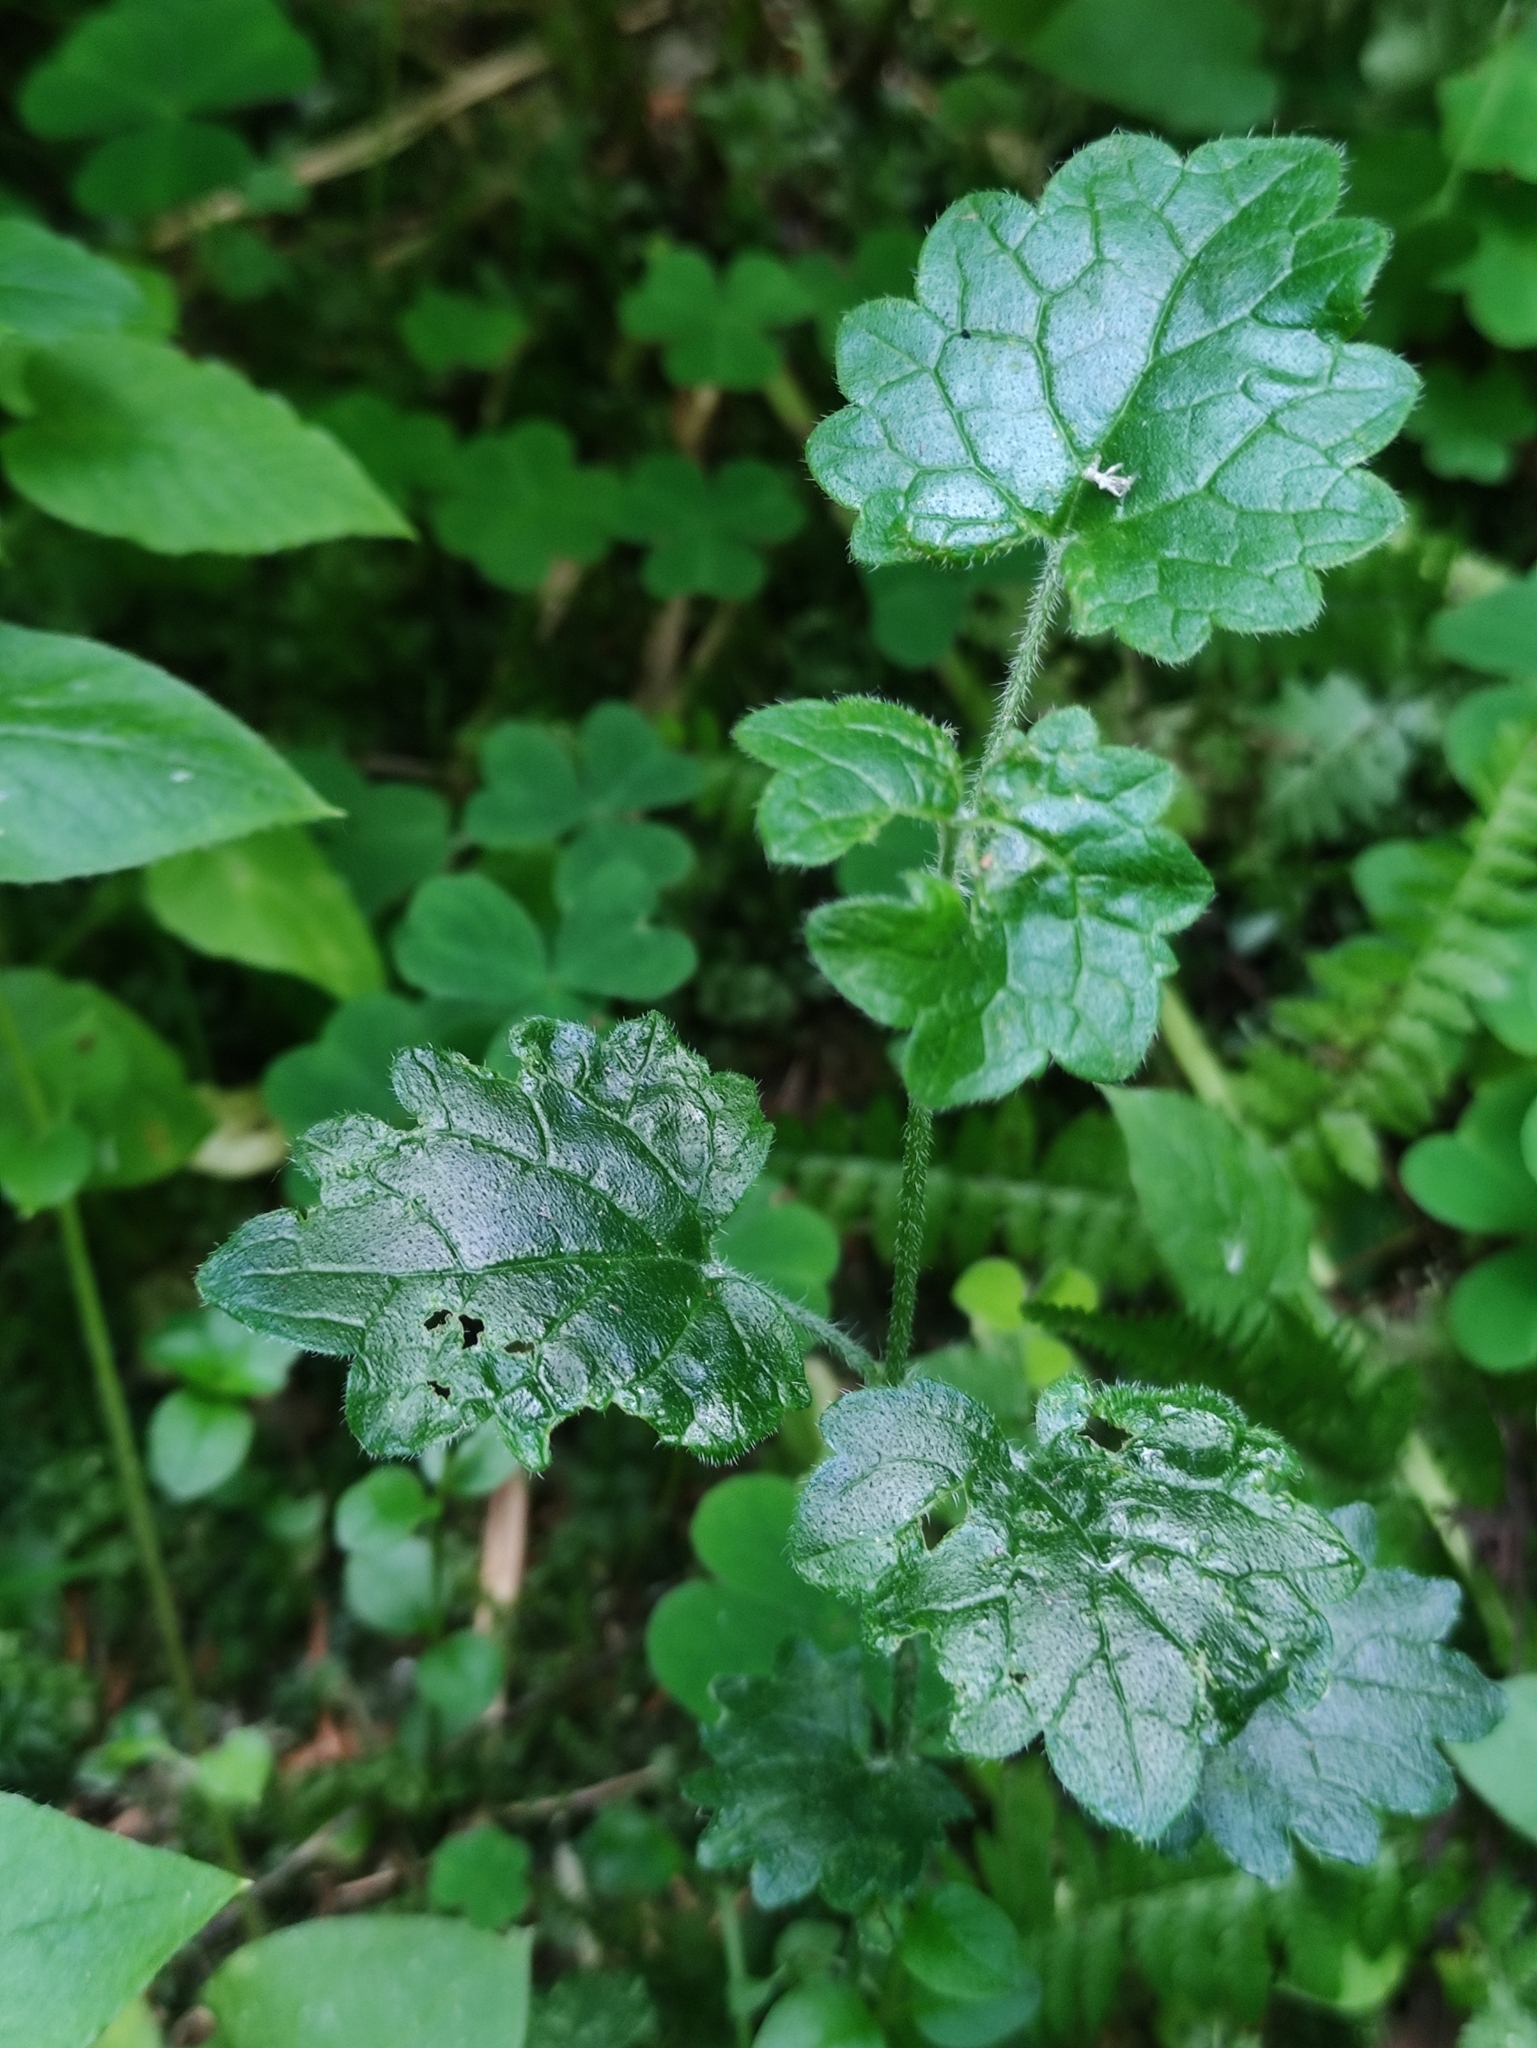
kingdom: Plantae
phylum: Tracheophyta
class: Magnoliopsida
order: Lamiales
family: Lamiaceae
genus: Glechoma
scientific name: Glechoma hederacea
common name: Ground ivy
